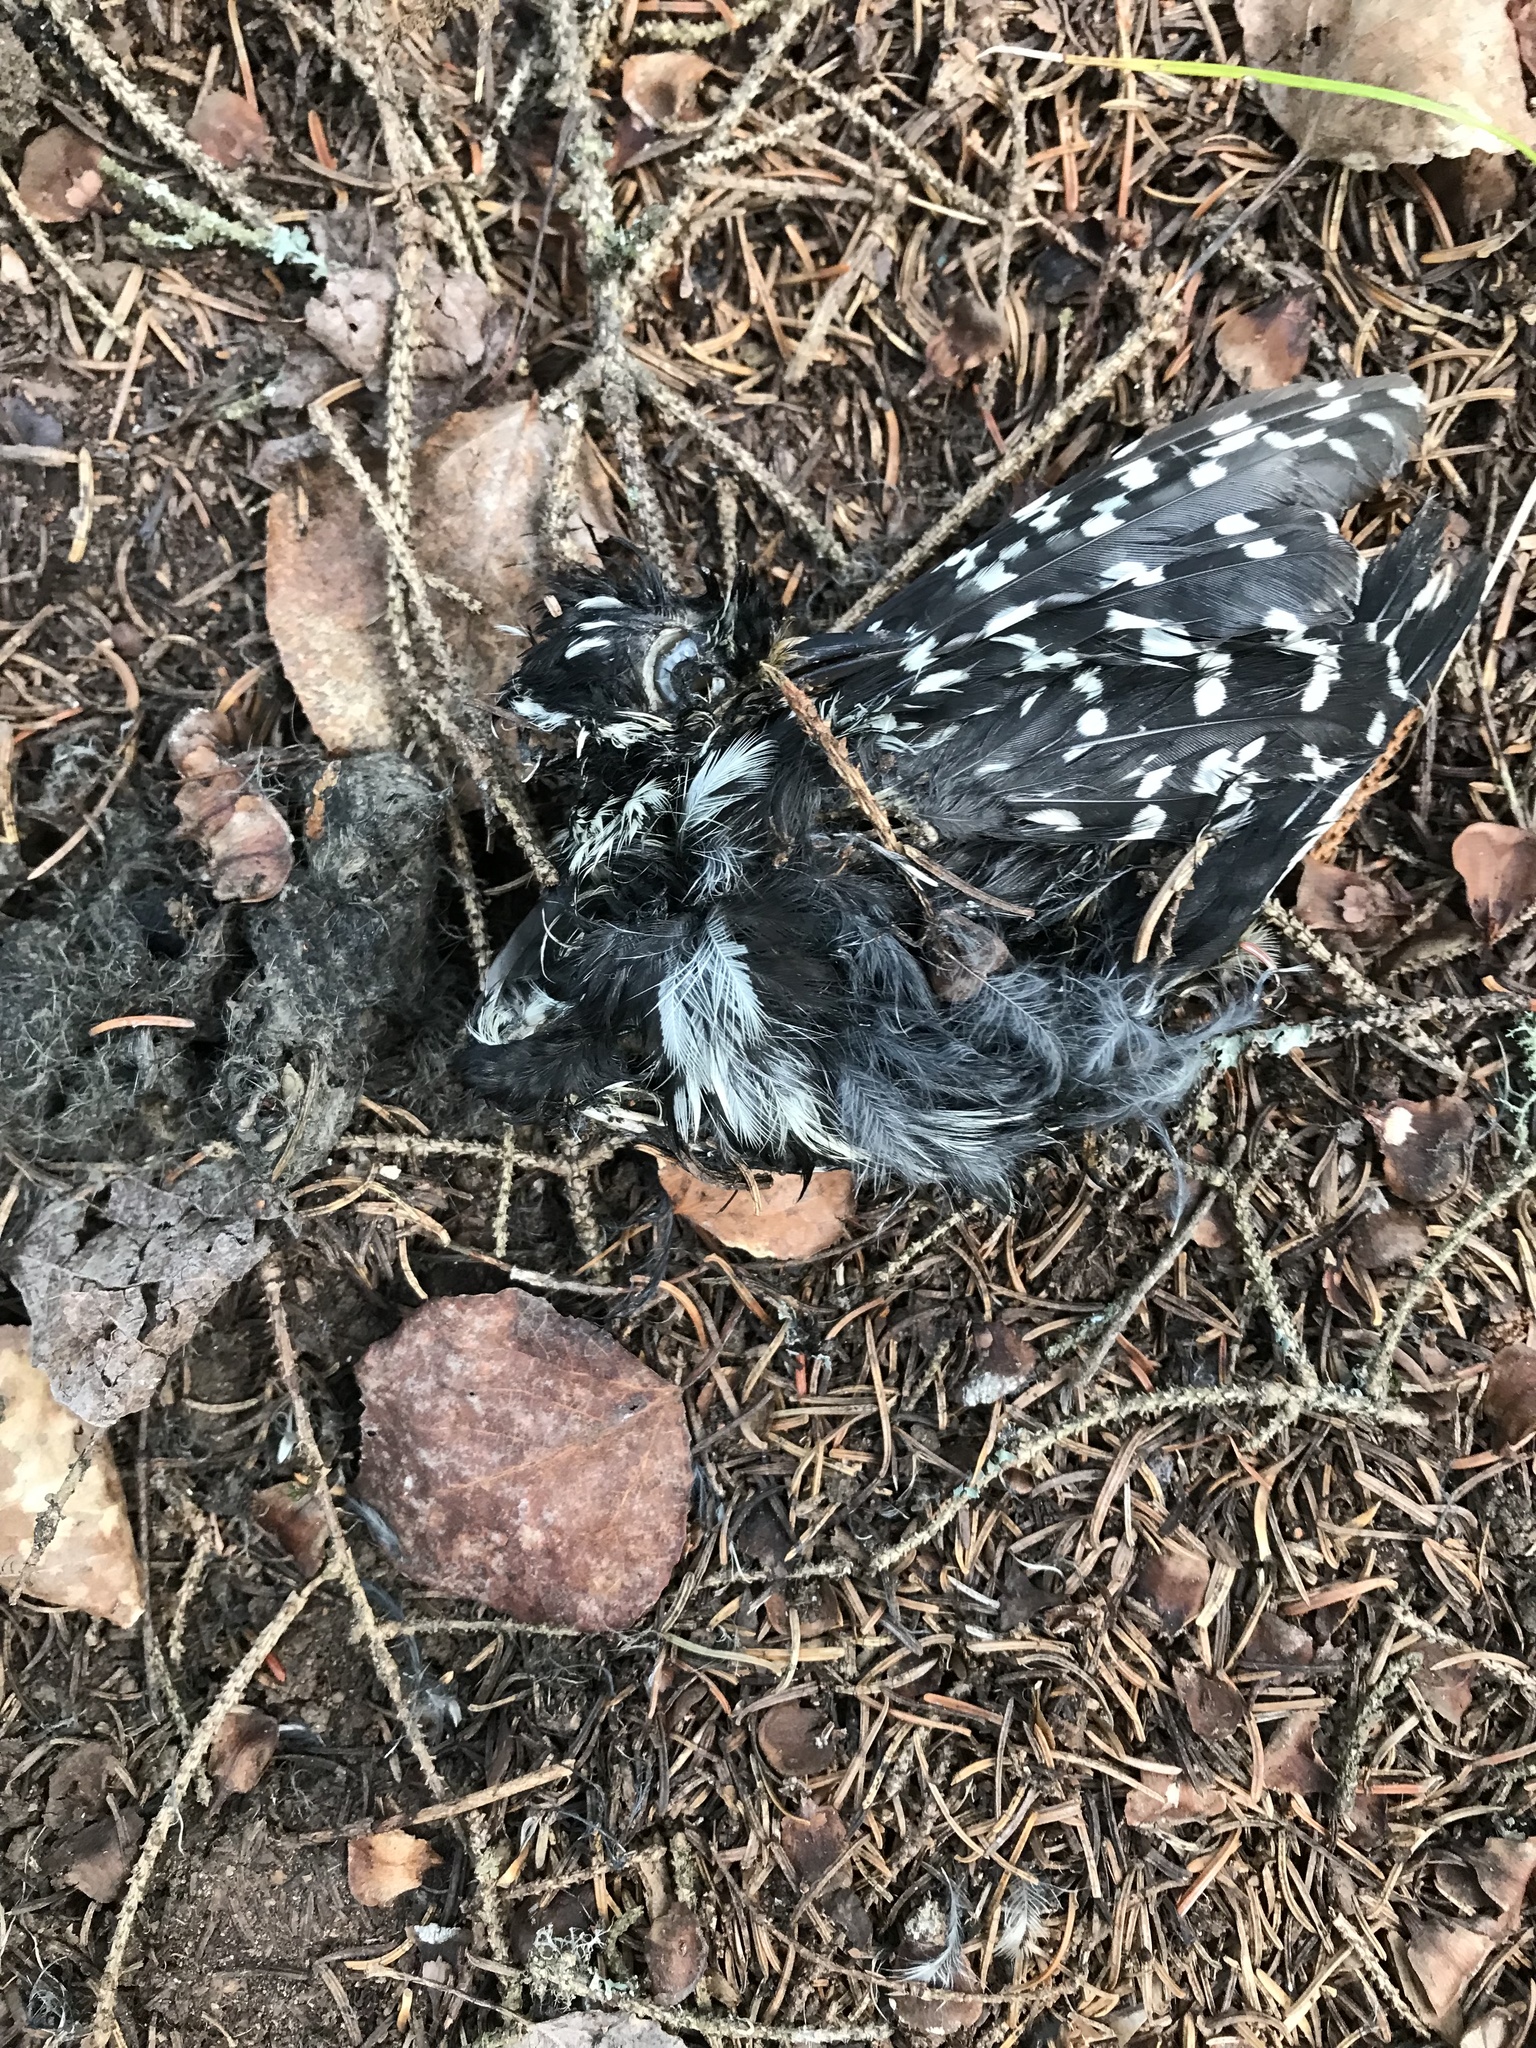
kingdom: Animalia
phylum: Chordata
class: Aves
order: Piciformes
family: Picidae
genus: Dryobates
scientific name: Dryobates pubescens
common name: Downy woodpecker
